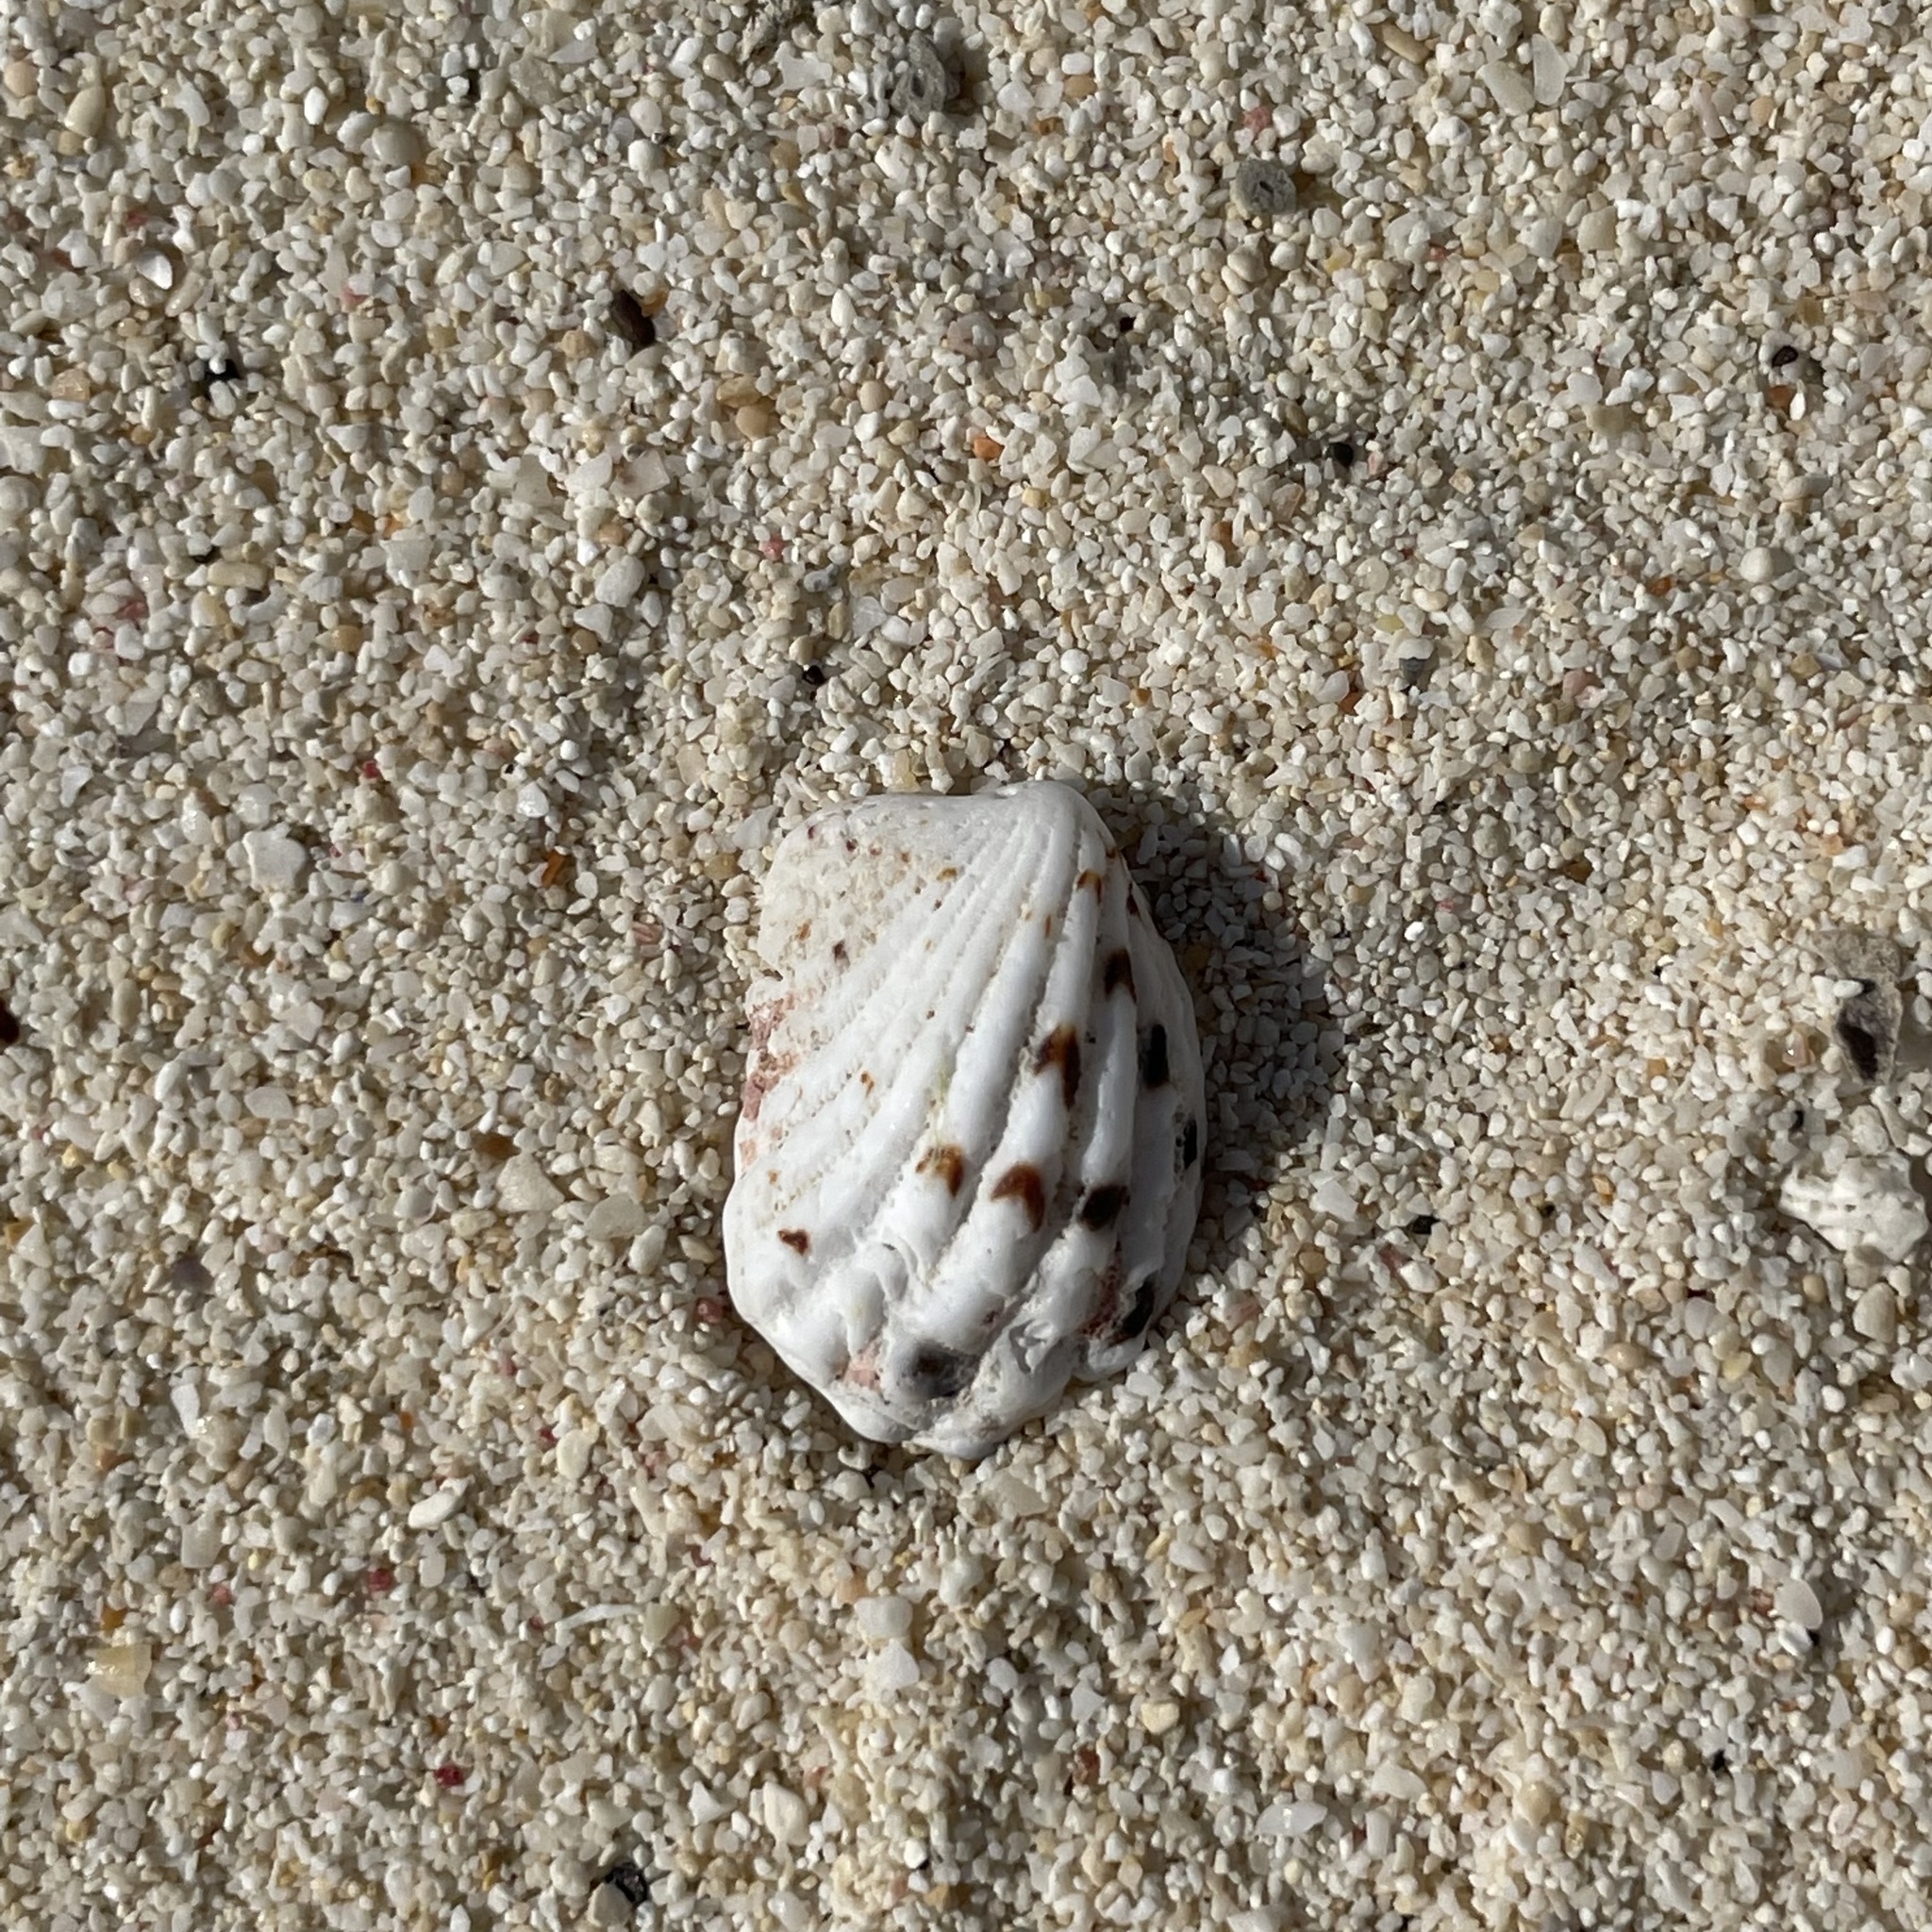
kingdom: Animalia
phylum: Mollusca
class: Bivalvia
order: Carditida
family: Carditidae
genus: Cardita
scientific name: Cardita variegata
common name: Rectangular false cockle
